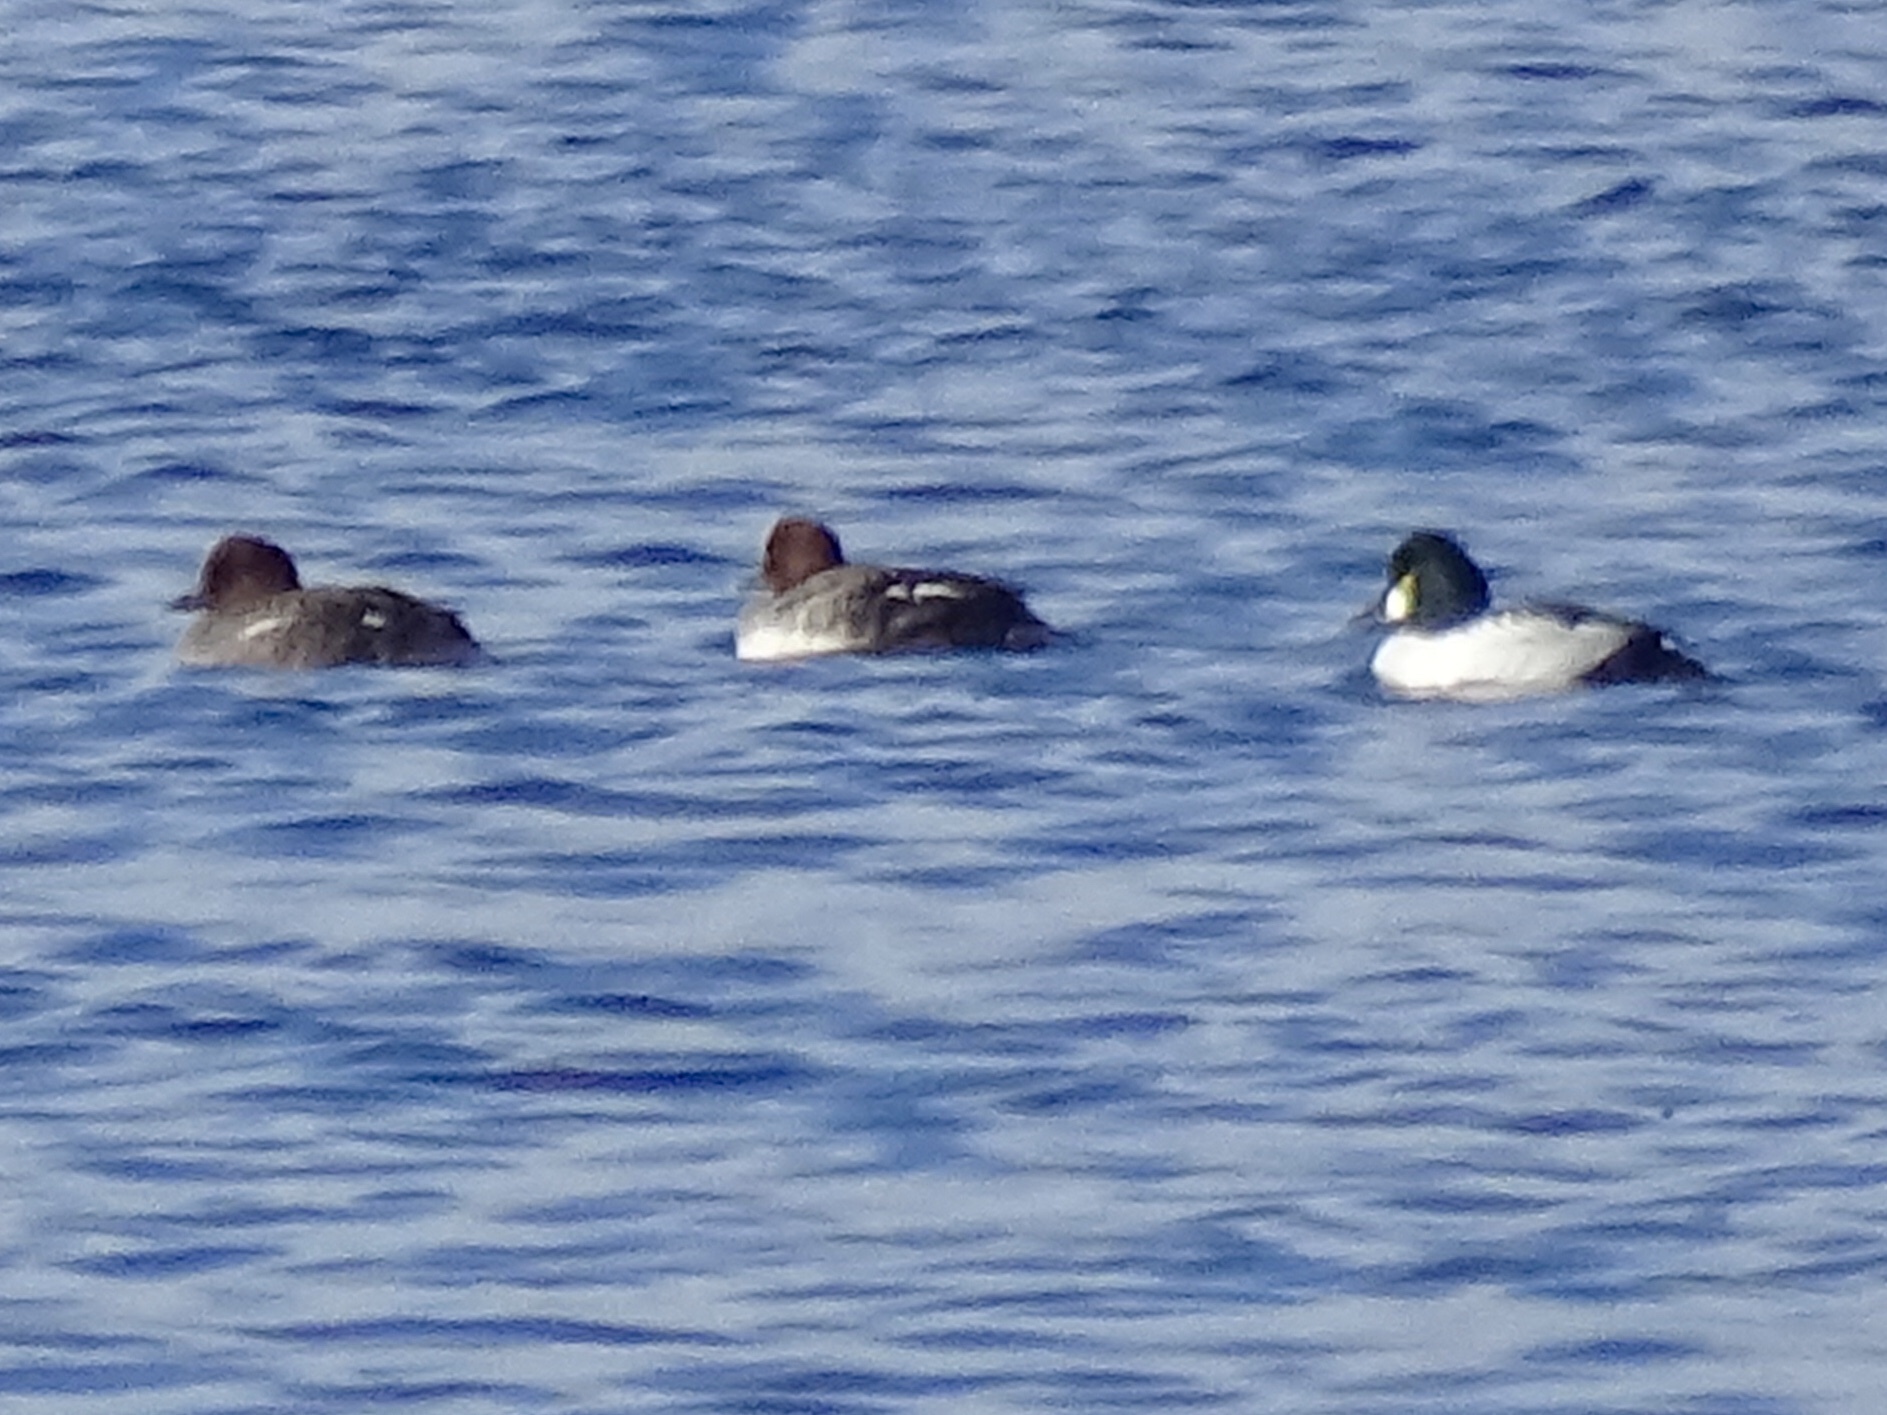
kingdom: Animalia
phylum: Chordata
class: Aves
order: Anseriformes
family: Anatidae
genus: Bucephala
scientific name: Bucephala clangula
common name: Common goldeneye
